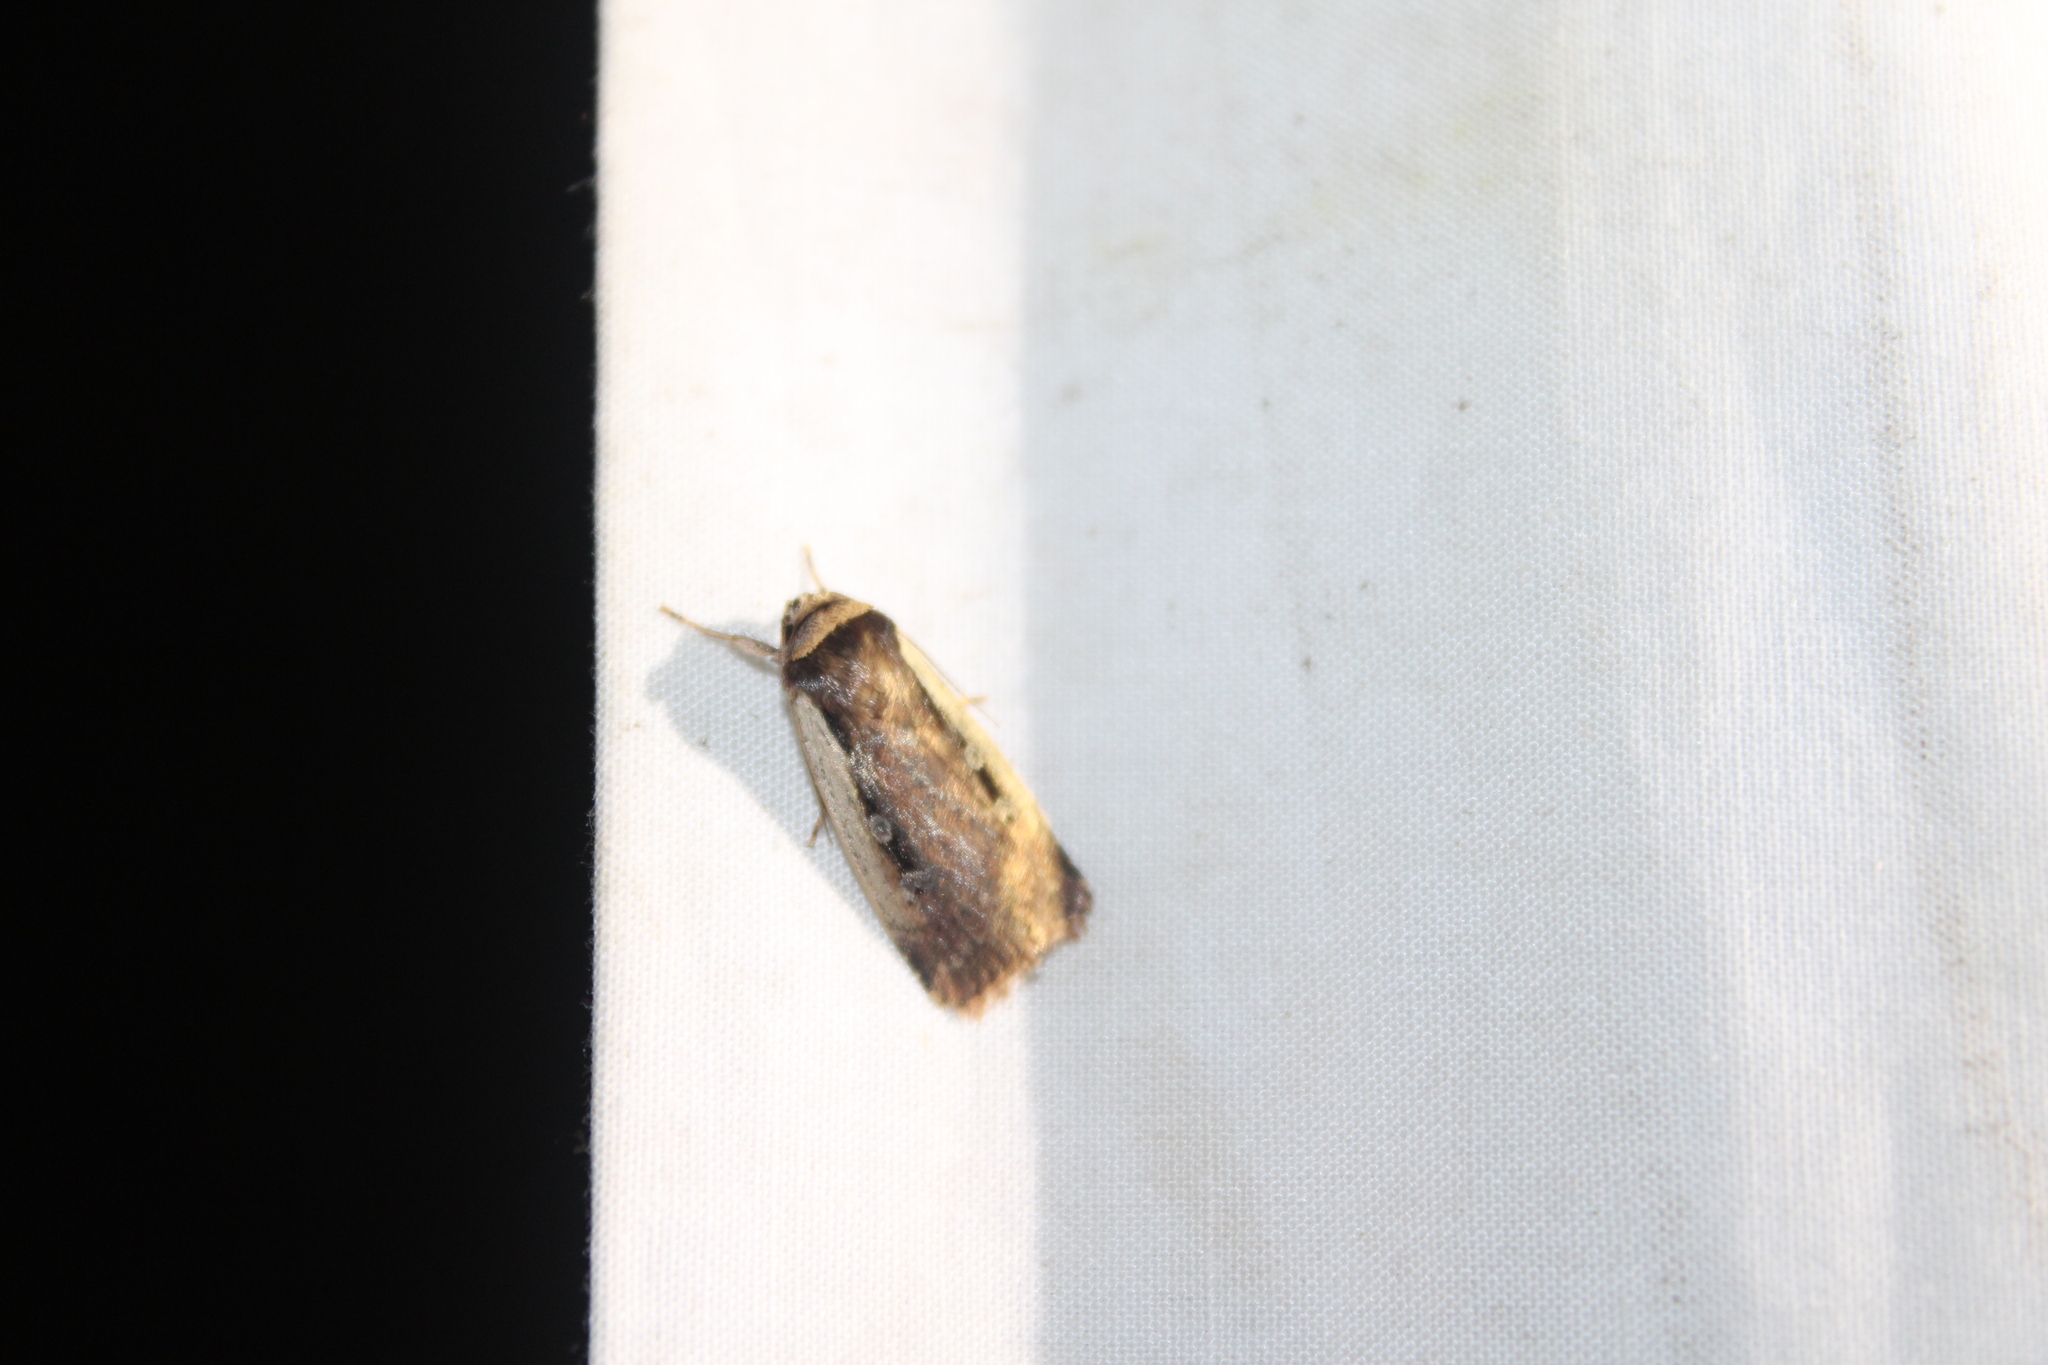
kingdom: Animalia
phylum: Arthropoda
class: Insecta
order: Lepidoptera
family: Noctuidae
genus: Ochropleura
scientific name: Ochropleura implecta
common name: Flame-shouldered dart
